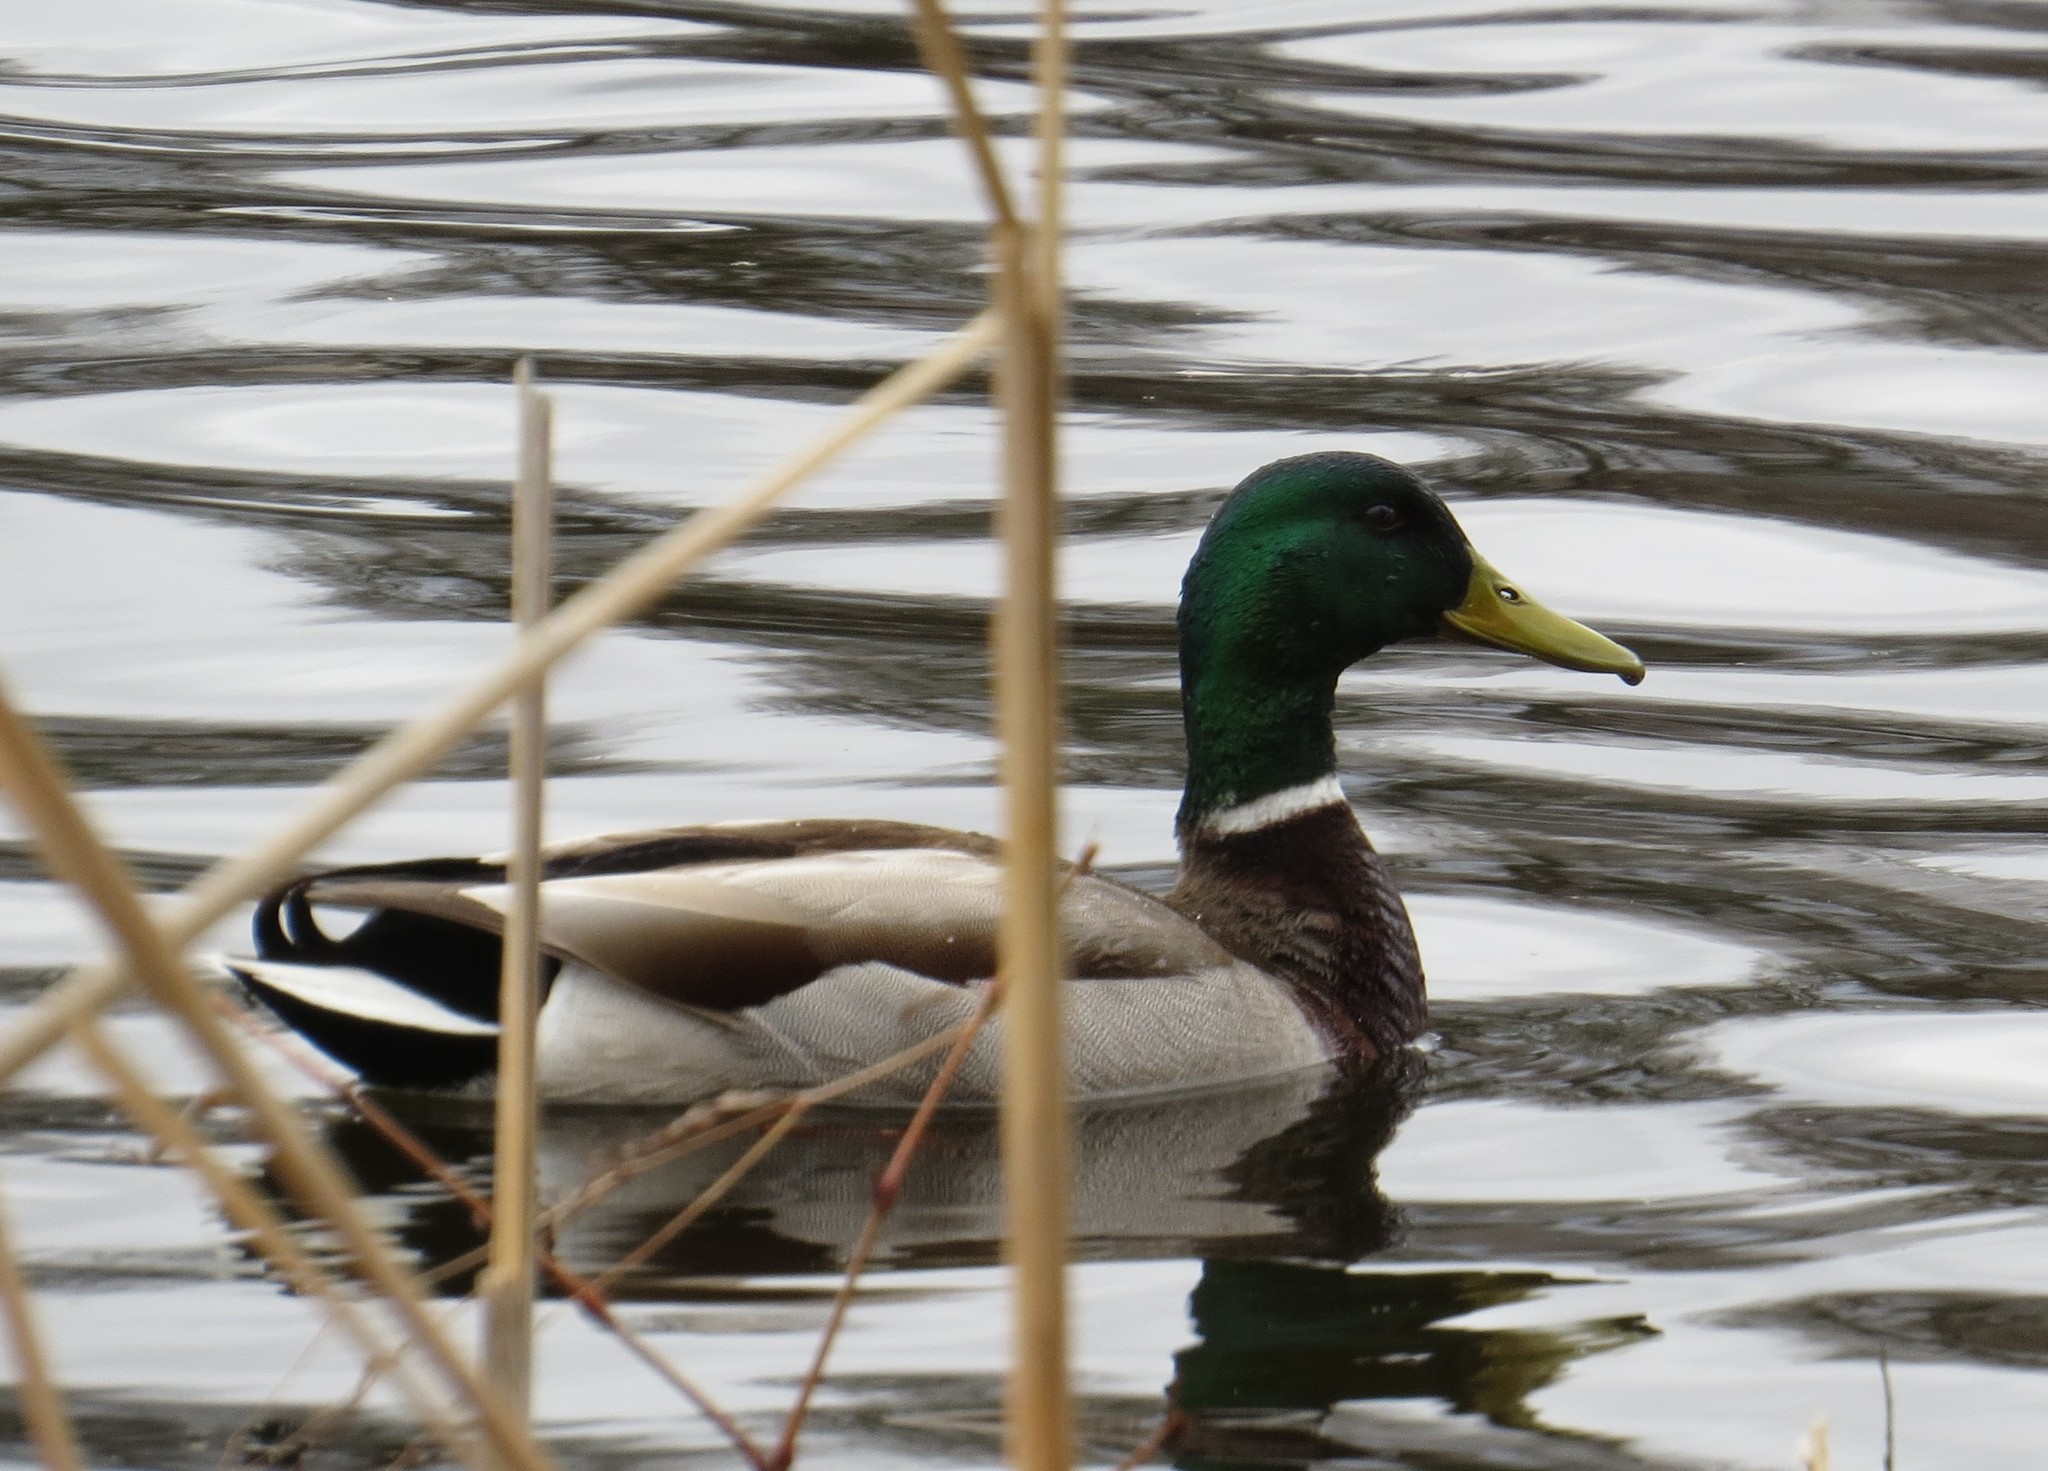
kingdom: Animalia
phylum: Chordata
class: Aves
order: Anseriformes
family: Anatidae
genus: Anas
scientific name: Anas platyrhynchos
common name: Mallard
